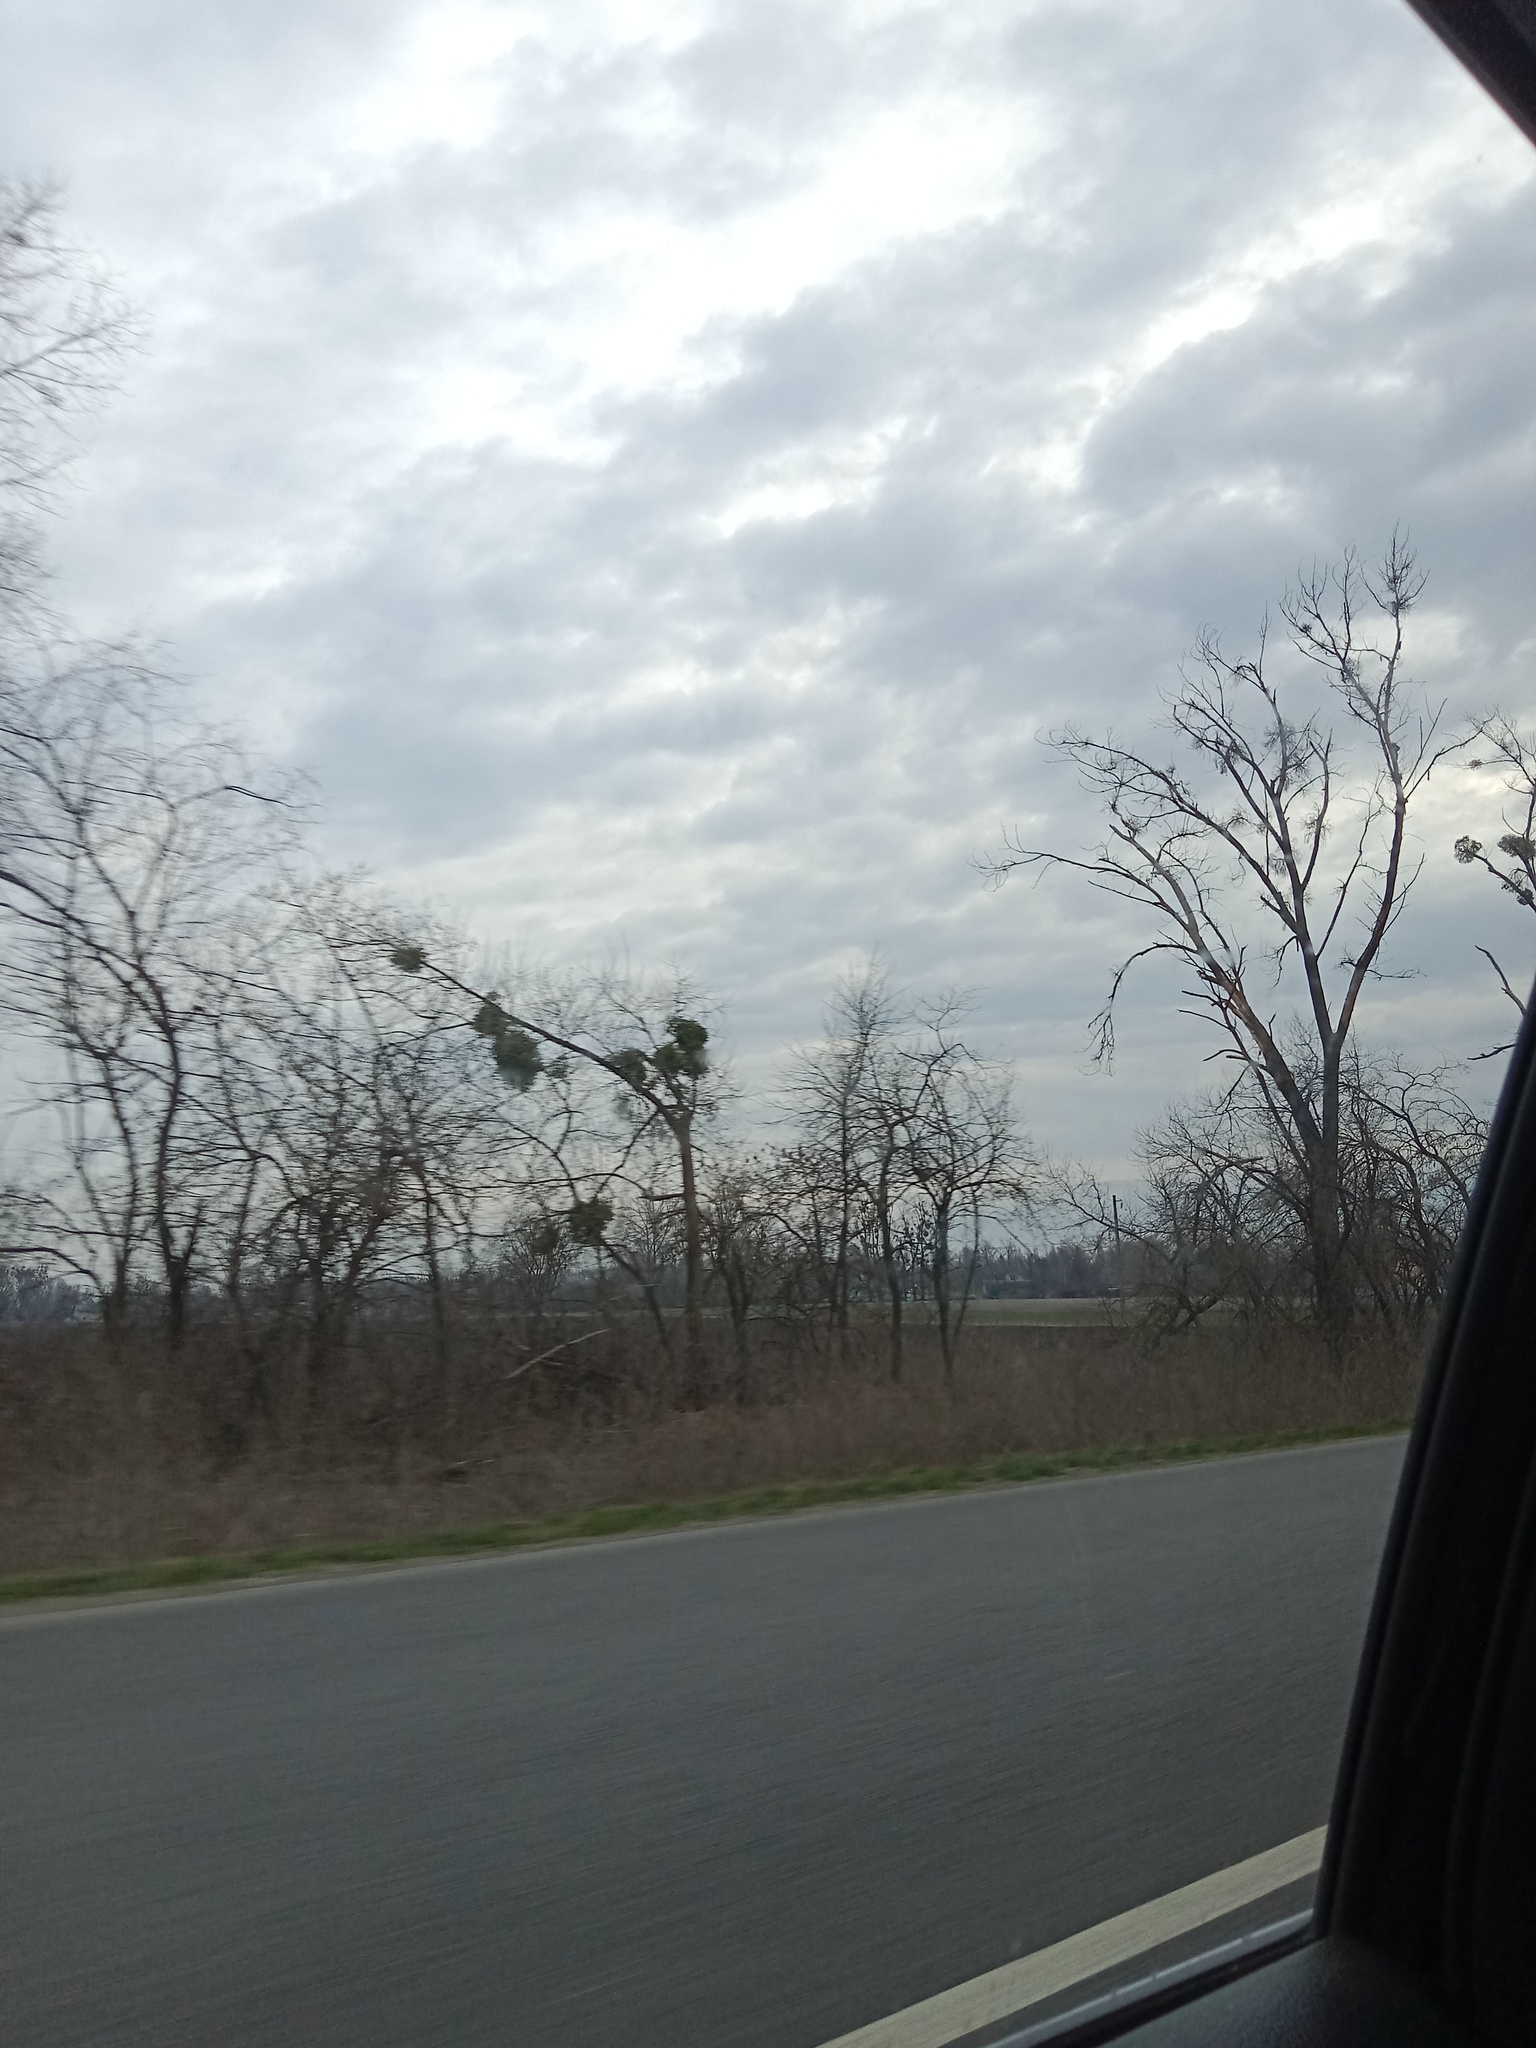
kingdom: Plantae
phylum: Tracheophyta
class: Magnoliopsida
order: Santalales
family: Viscaceae
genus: Viscum
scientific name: Viscum album
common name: Mistletoe
